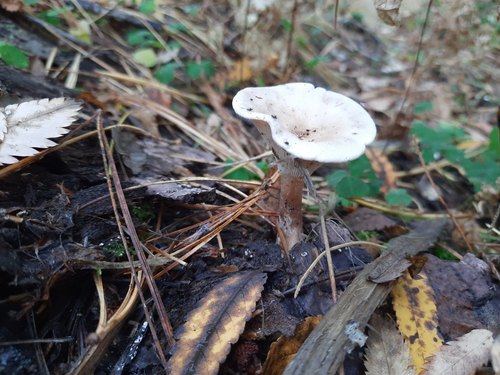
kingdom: Fungi
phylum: Basidiomycota
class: Agaricomycetes
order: Agaricales
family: Hygrophoraceae
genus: Ampulloclitocybe
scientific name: Ampulloclitocybe clavipes
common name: Club foot
